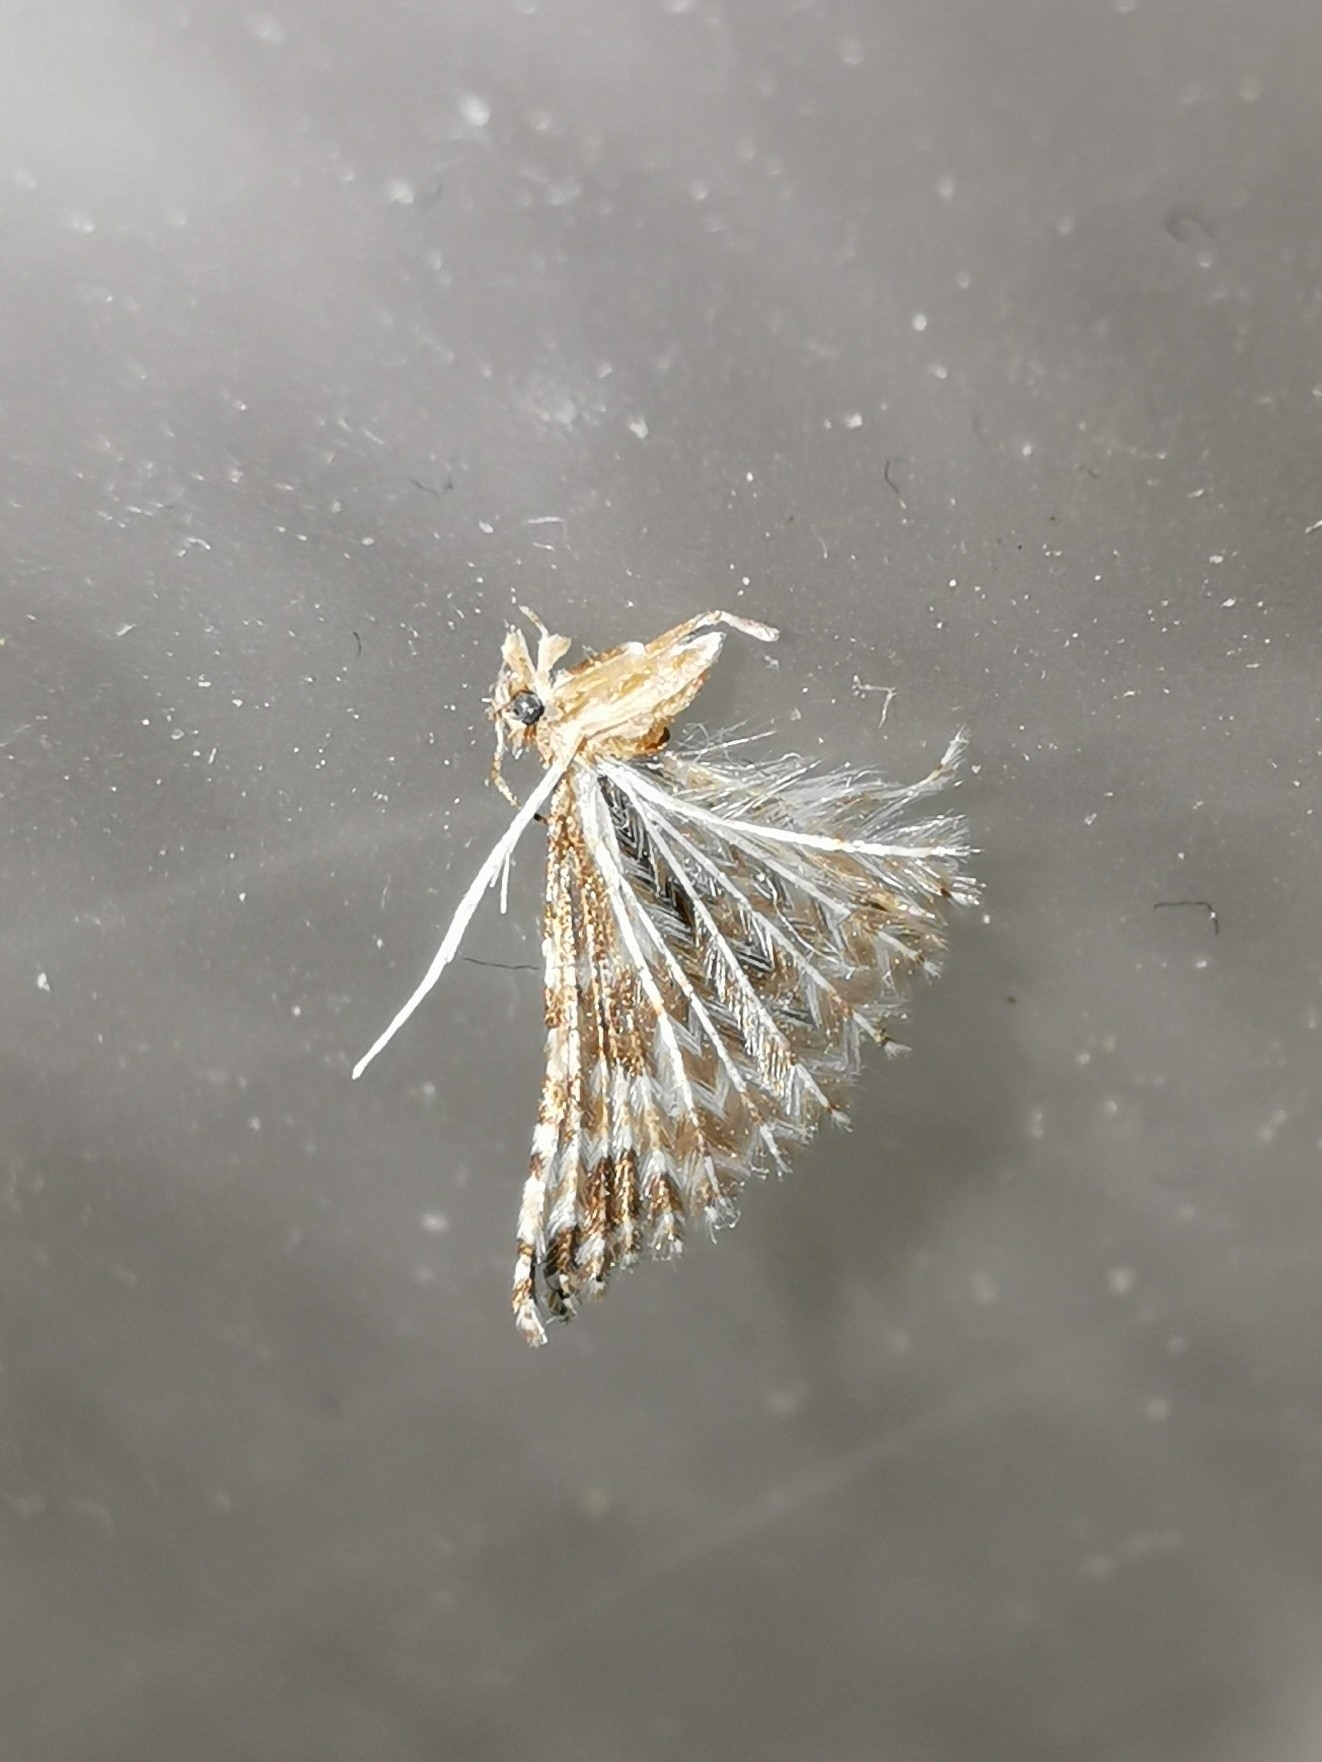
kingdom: Animalia
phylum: Arthropoda
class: Insecta
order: Lepidoptera
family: Alucitidae
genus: Alucita
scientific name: Alucita montana
